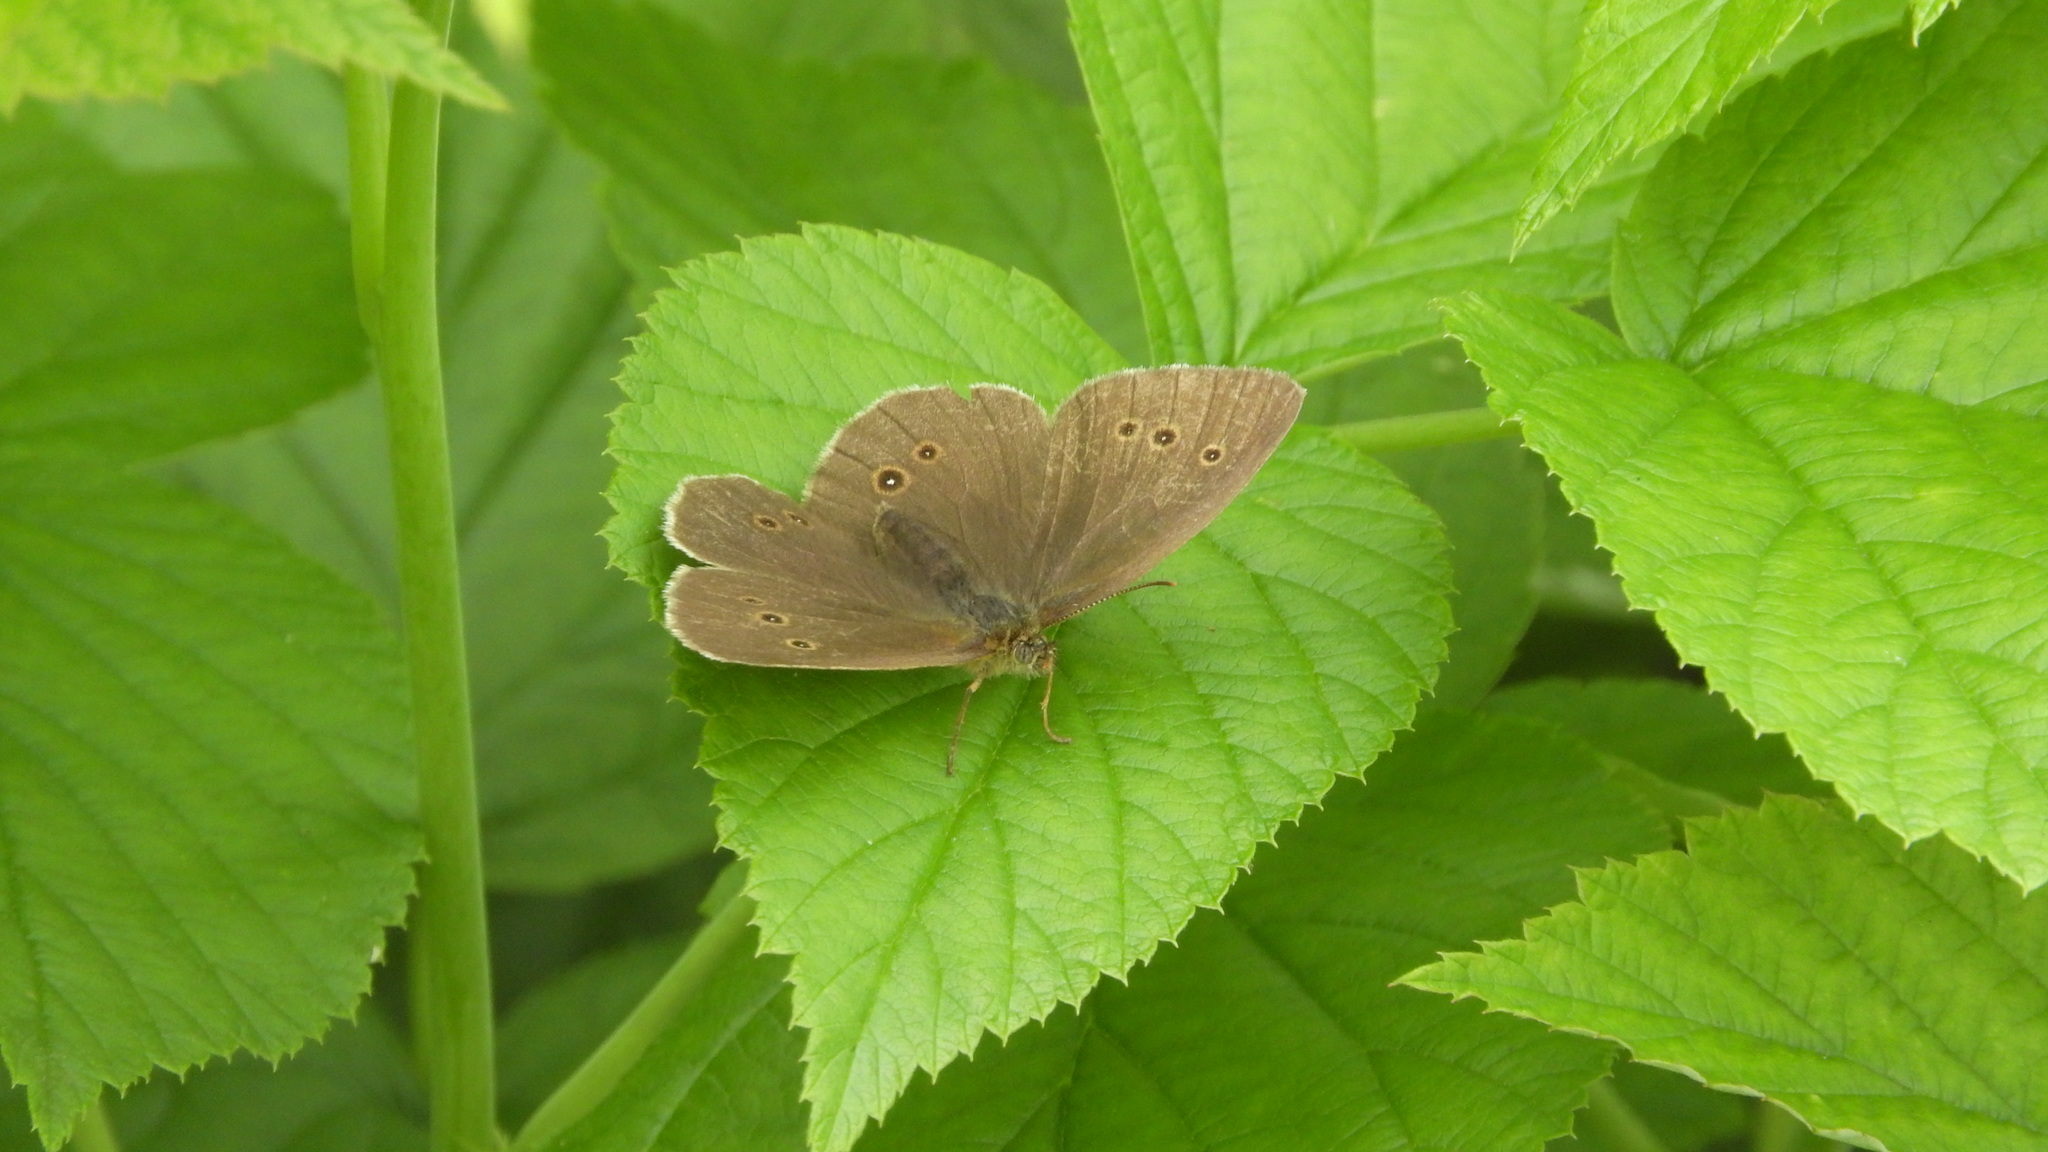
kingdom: Animalia
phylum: Arthropoda
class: Insecta
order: Lepidoptera
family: Nymphalidae
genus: Aphantopus
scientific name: Aphantopus hyperantus
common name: Ringlet
